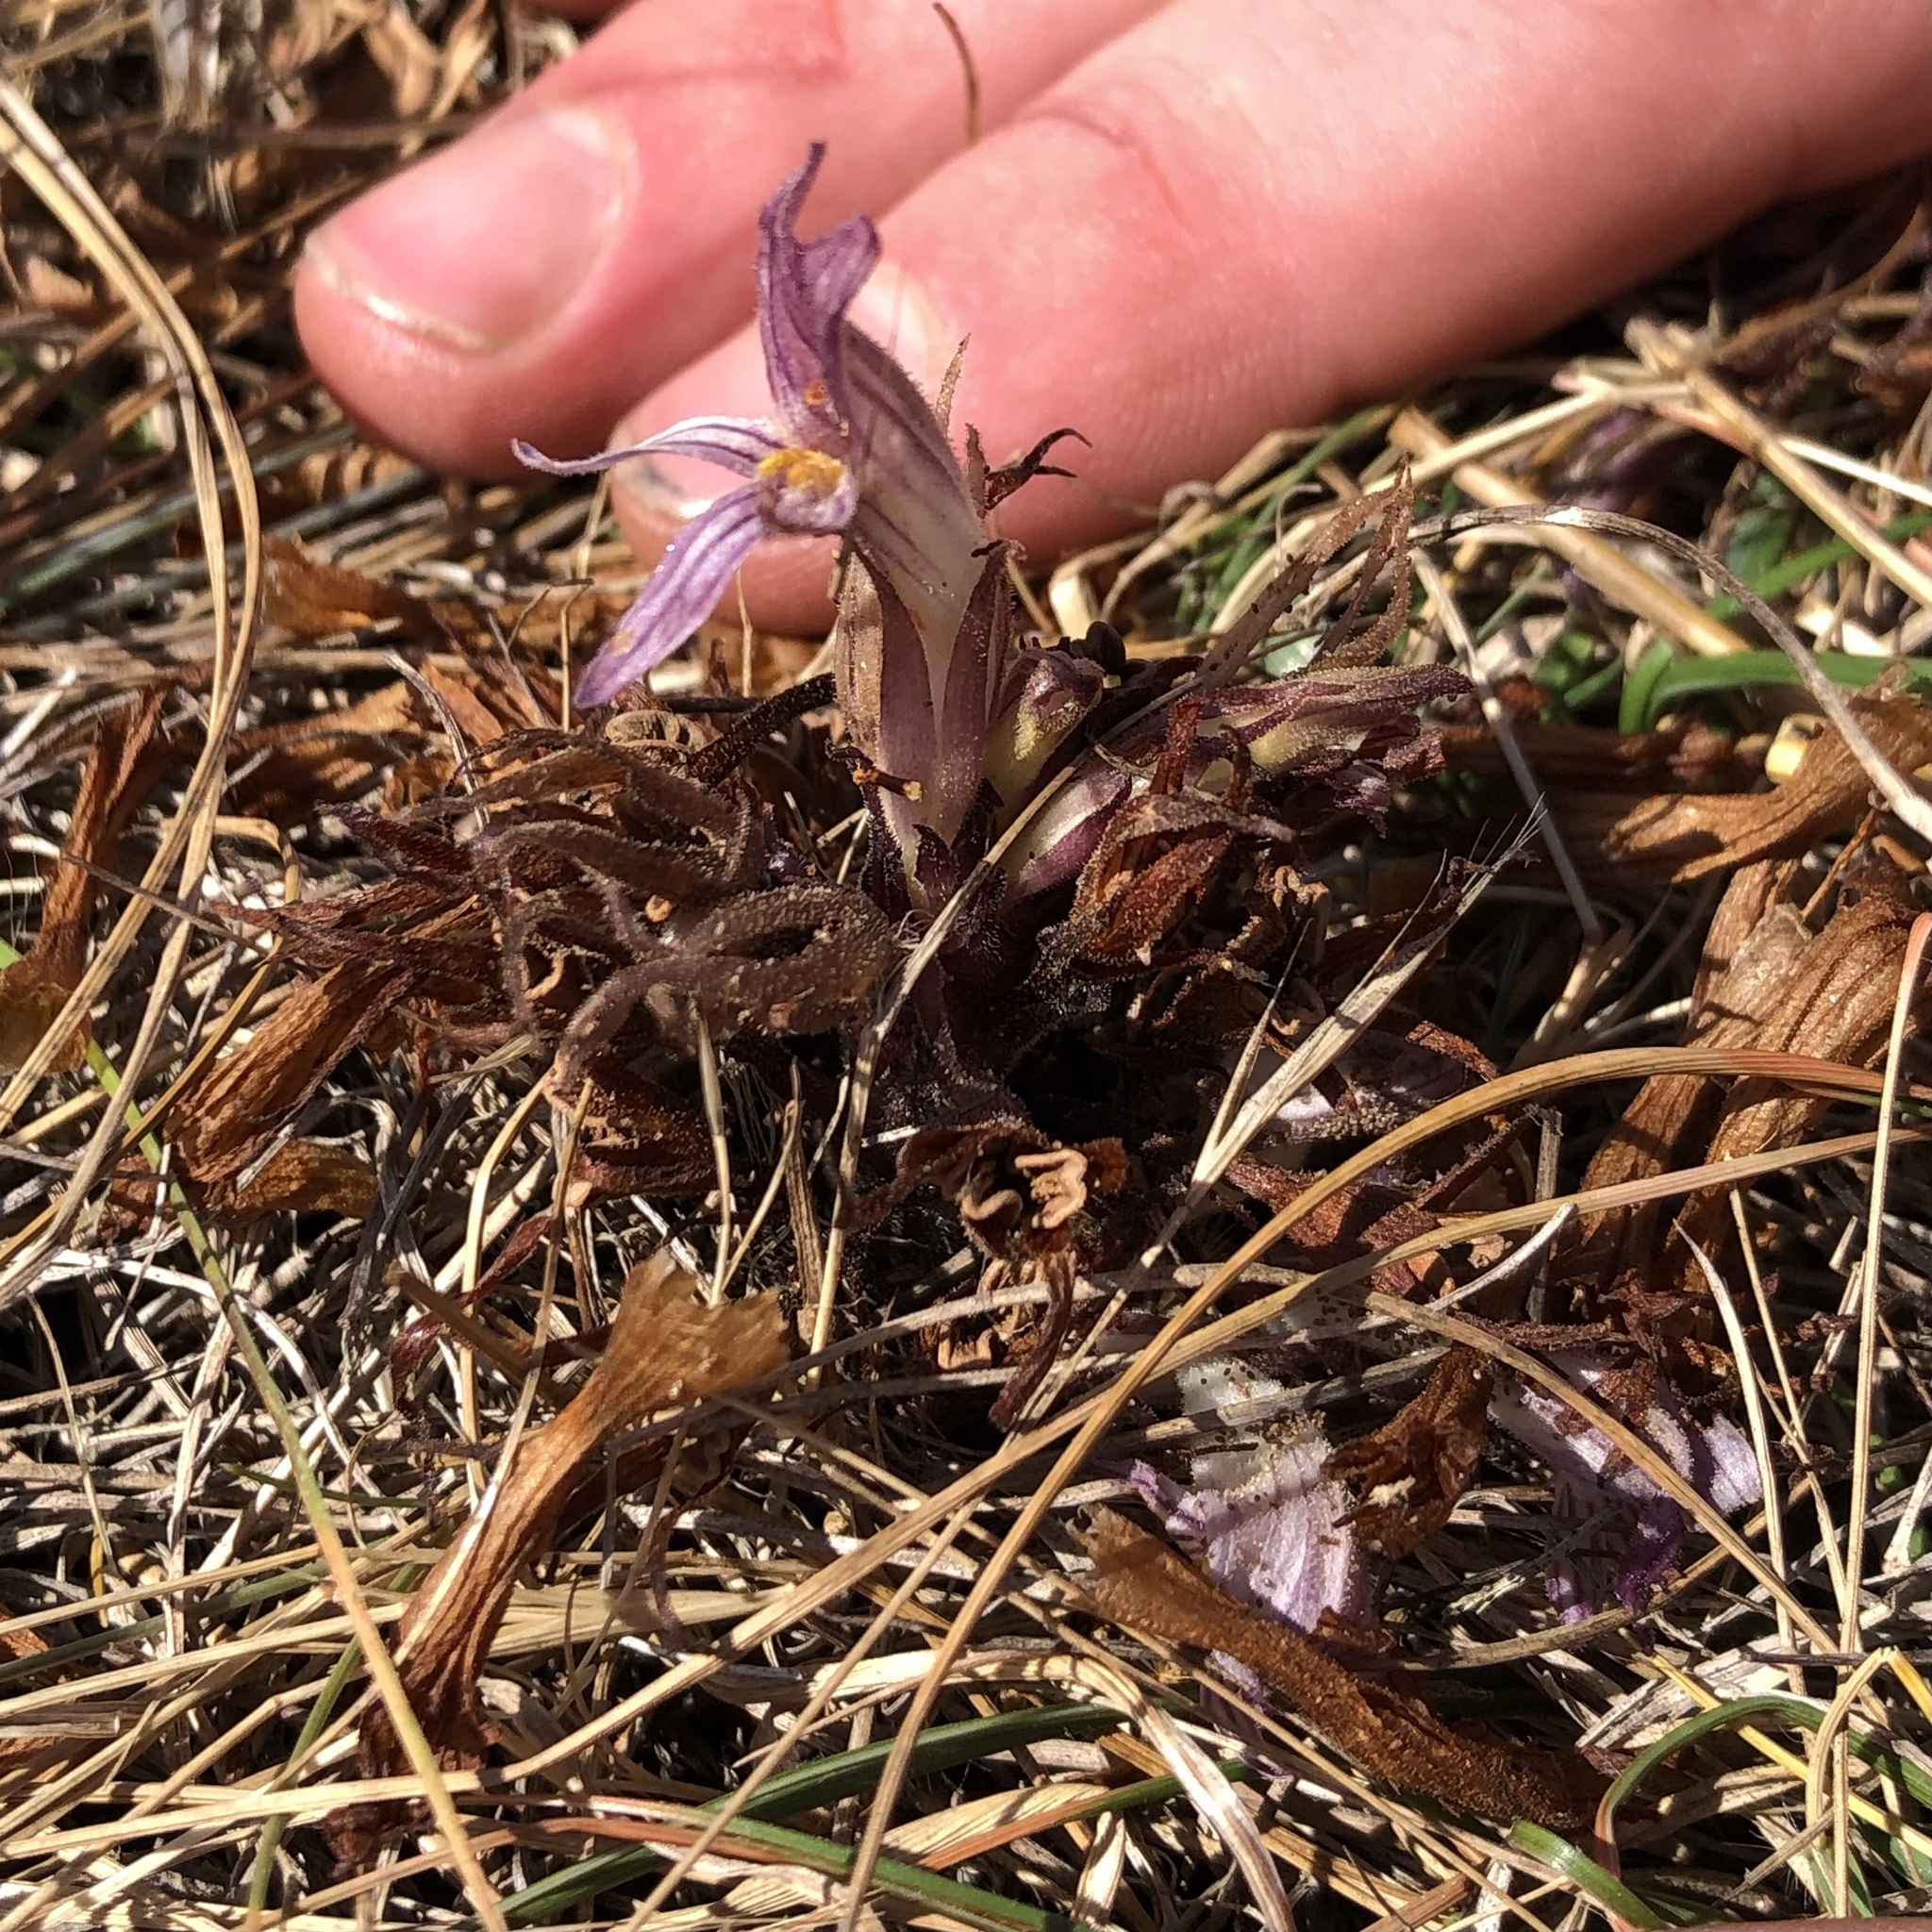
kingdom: Plantae
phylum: Tracheophyta
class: Magnoliopsida
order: Lamiales
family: Orobanchaceae
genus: Aphyllon
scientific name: Aphyllon californicum
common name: California broomrape
